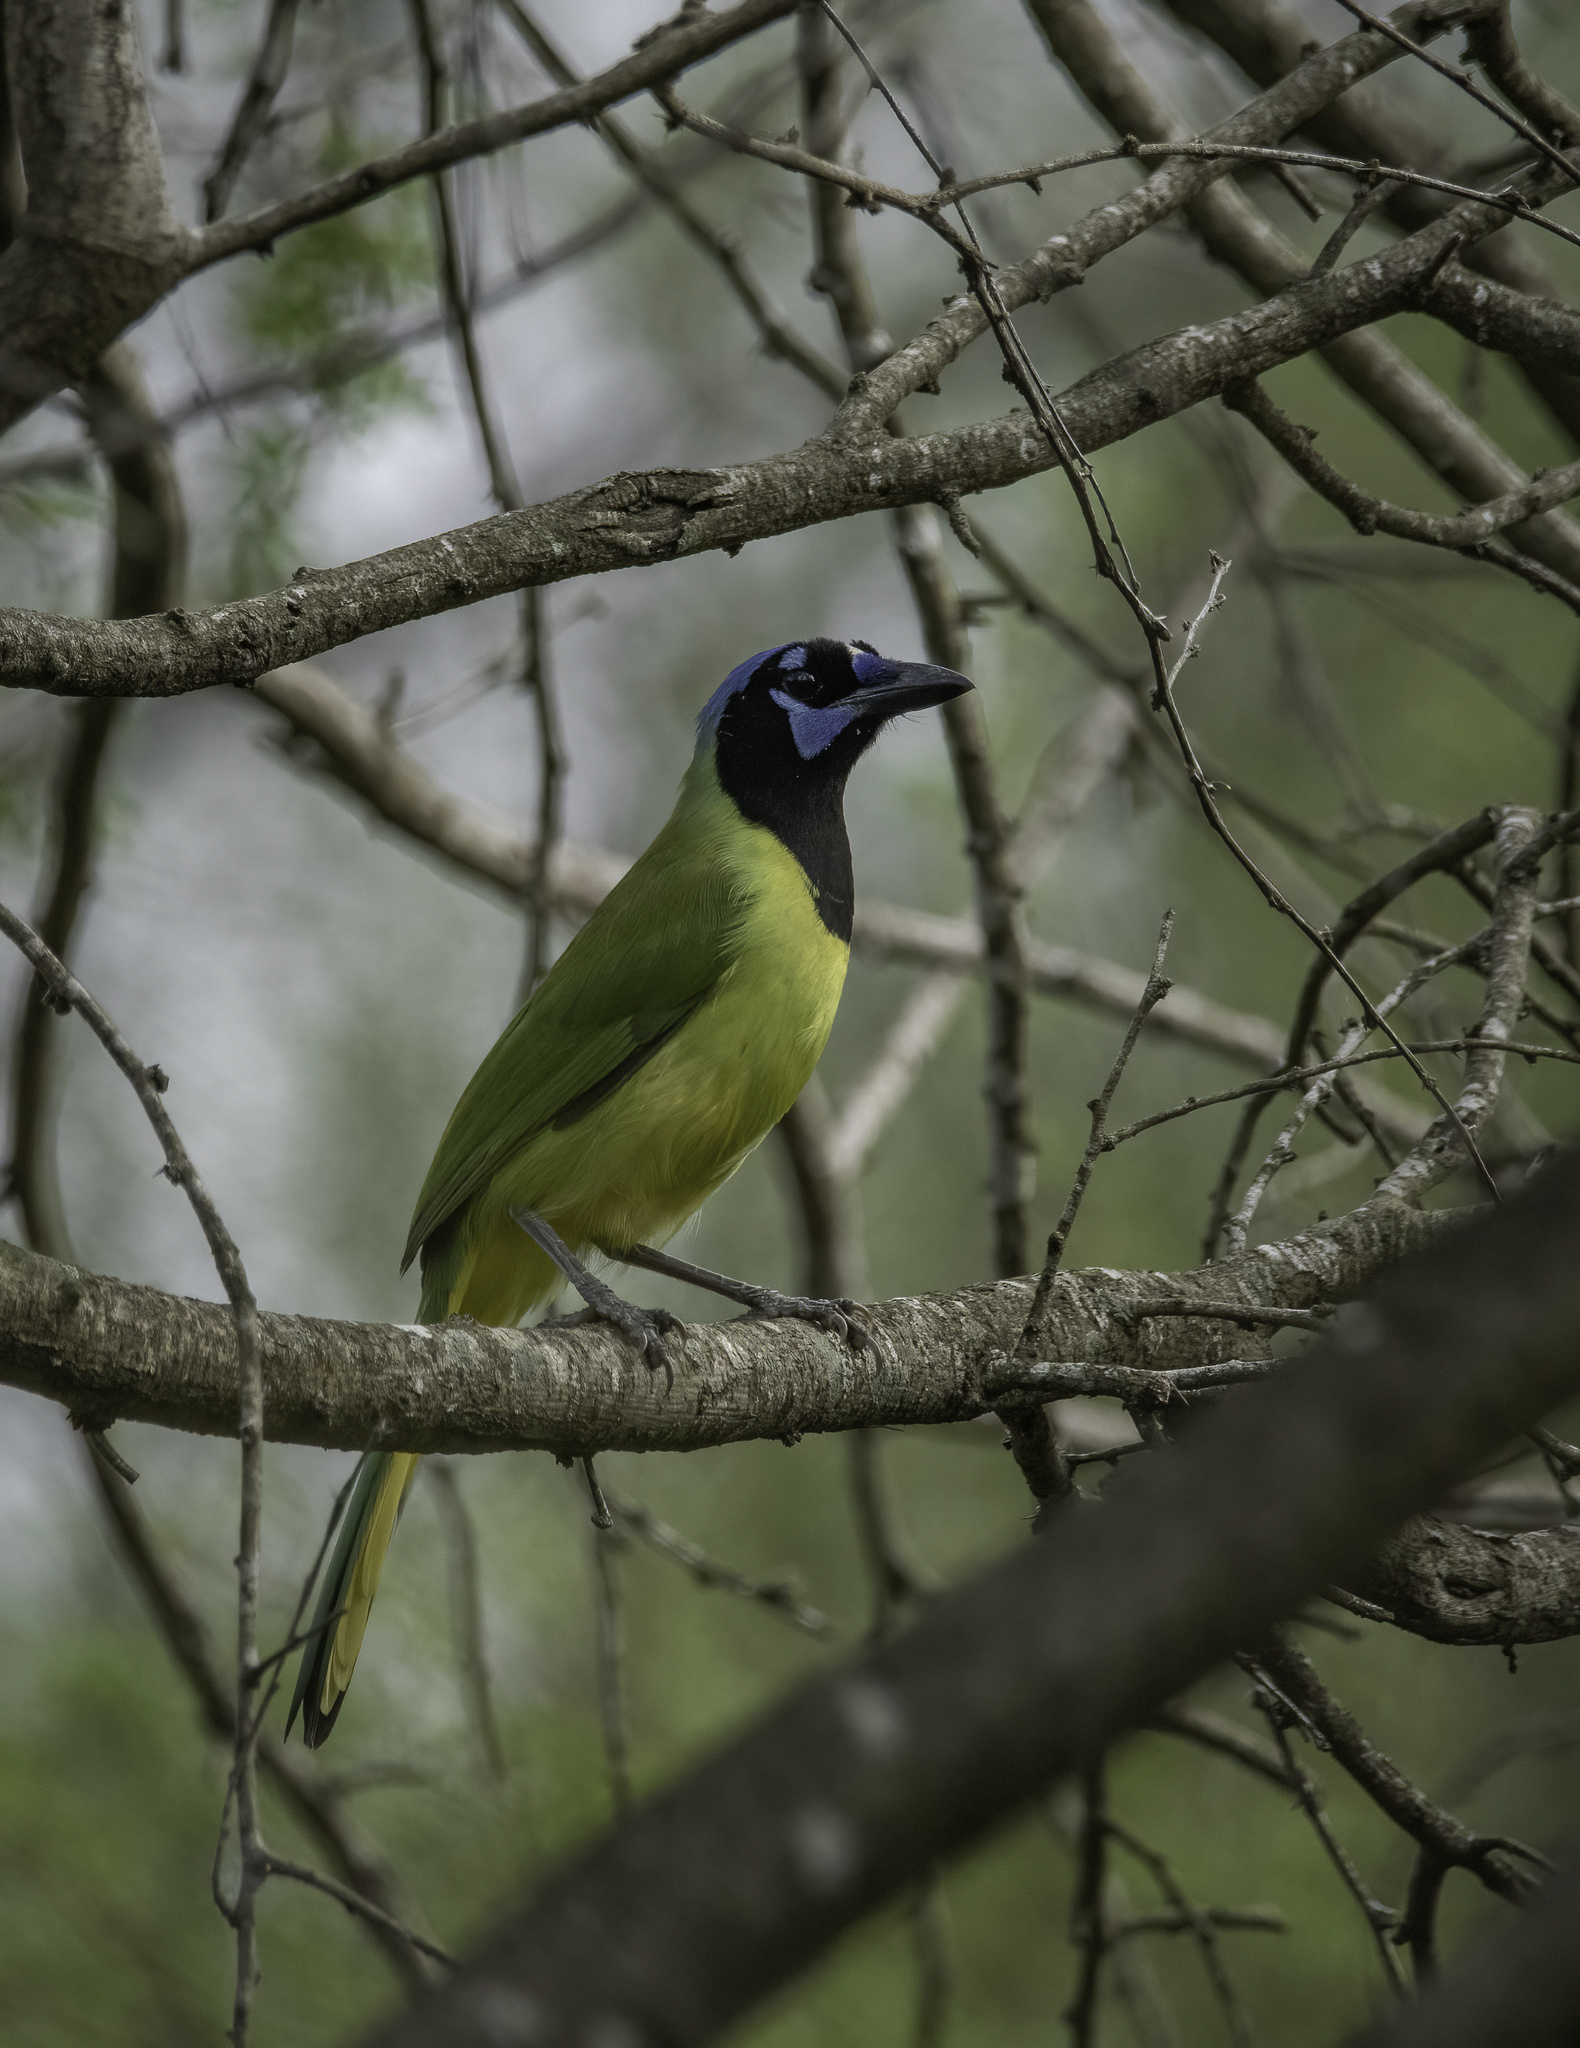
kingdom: Animalia
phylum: Chordata
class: Aves
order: Passeriformes
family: Corvidae
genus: Cyanocorax
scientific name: Cyanocorax yncas
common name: Green jay
